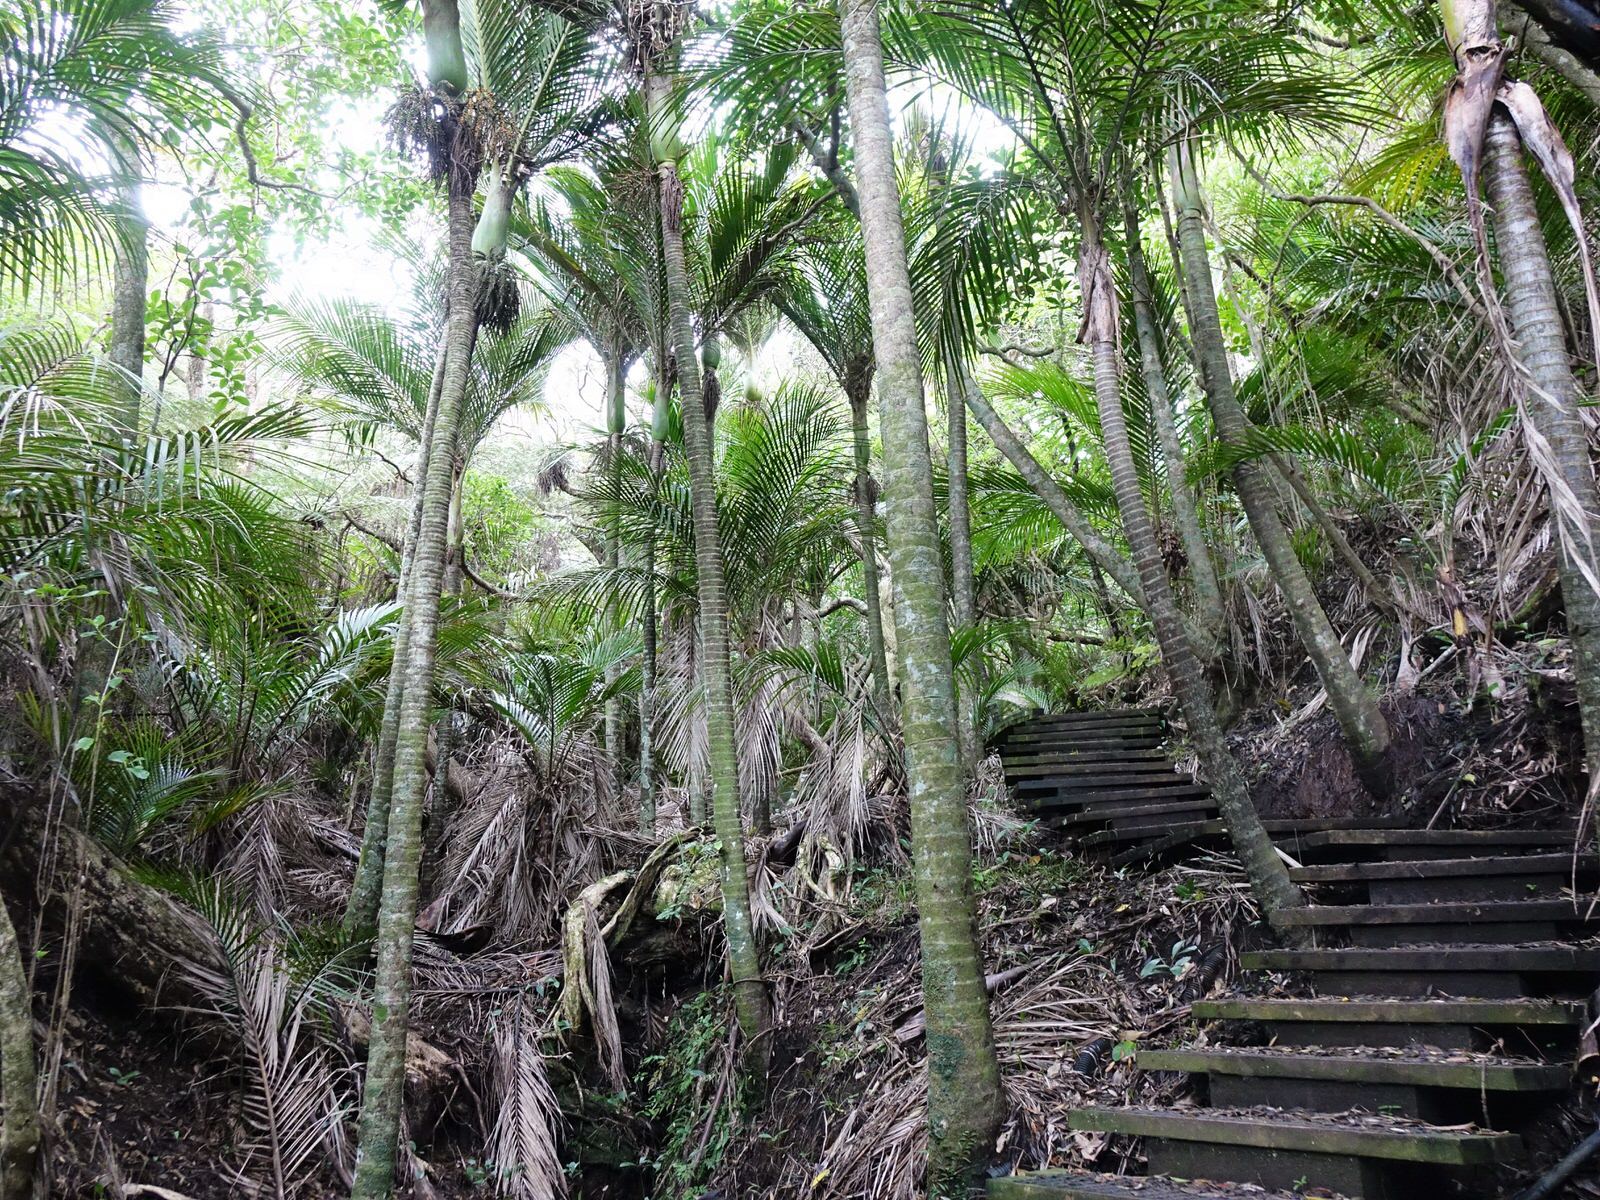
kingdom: Plantae
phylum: Tracheophyta
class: Liliopsida
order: Arecales
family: Arecaceae
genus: Rhopalostylis
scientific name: Rhopalostylis sapida
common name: Feather-duster palm
